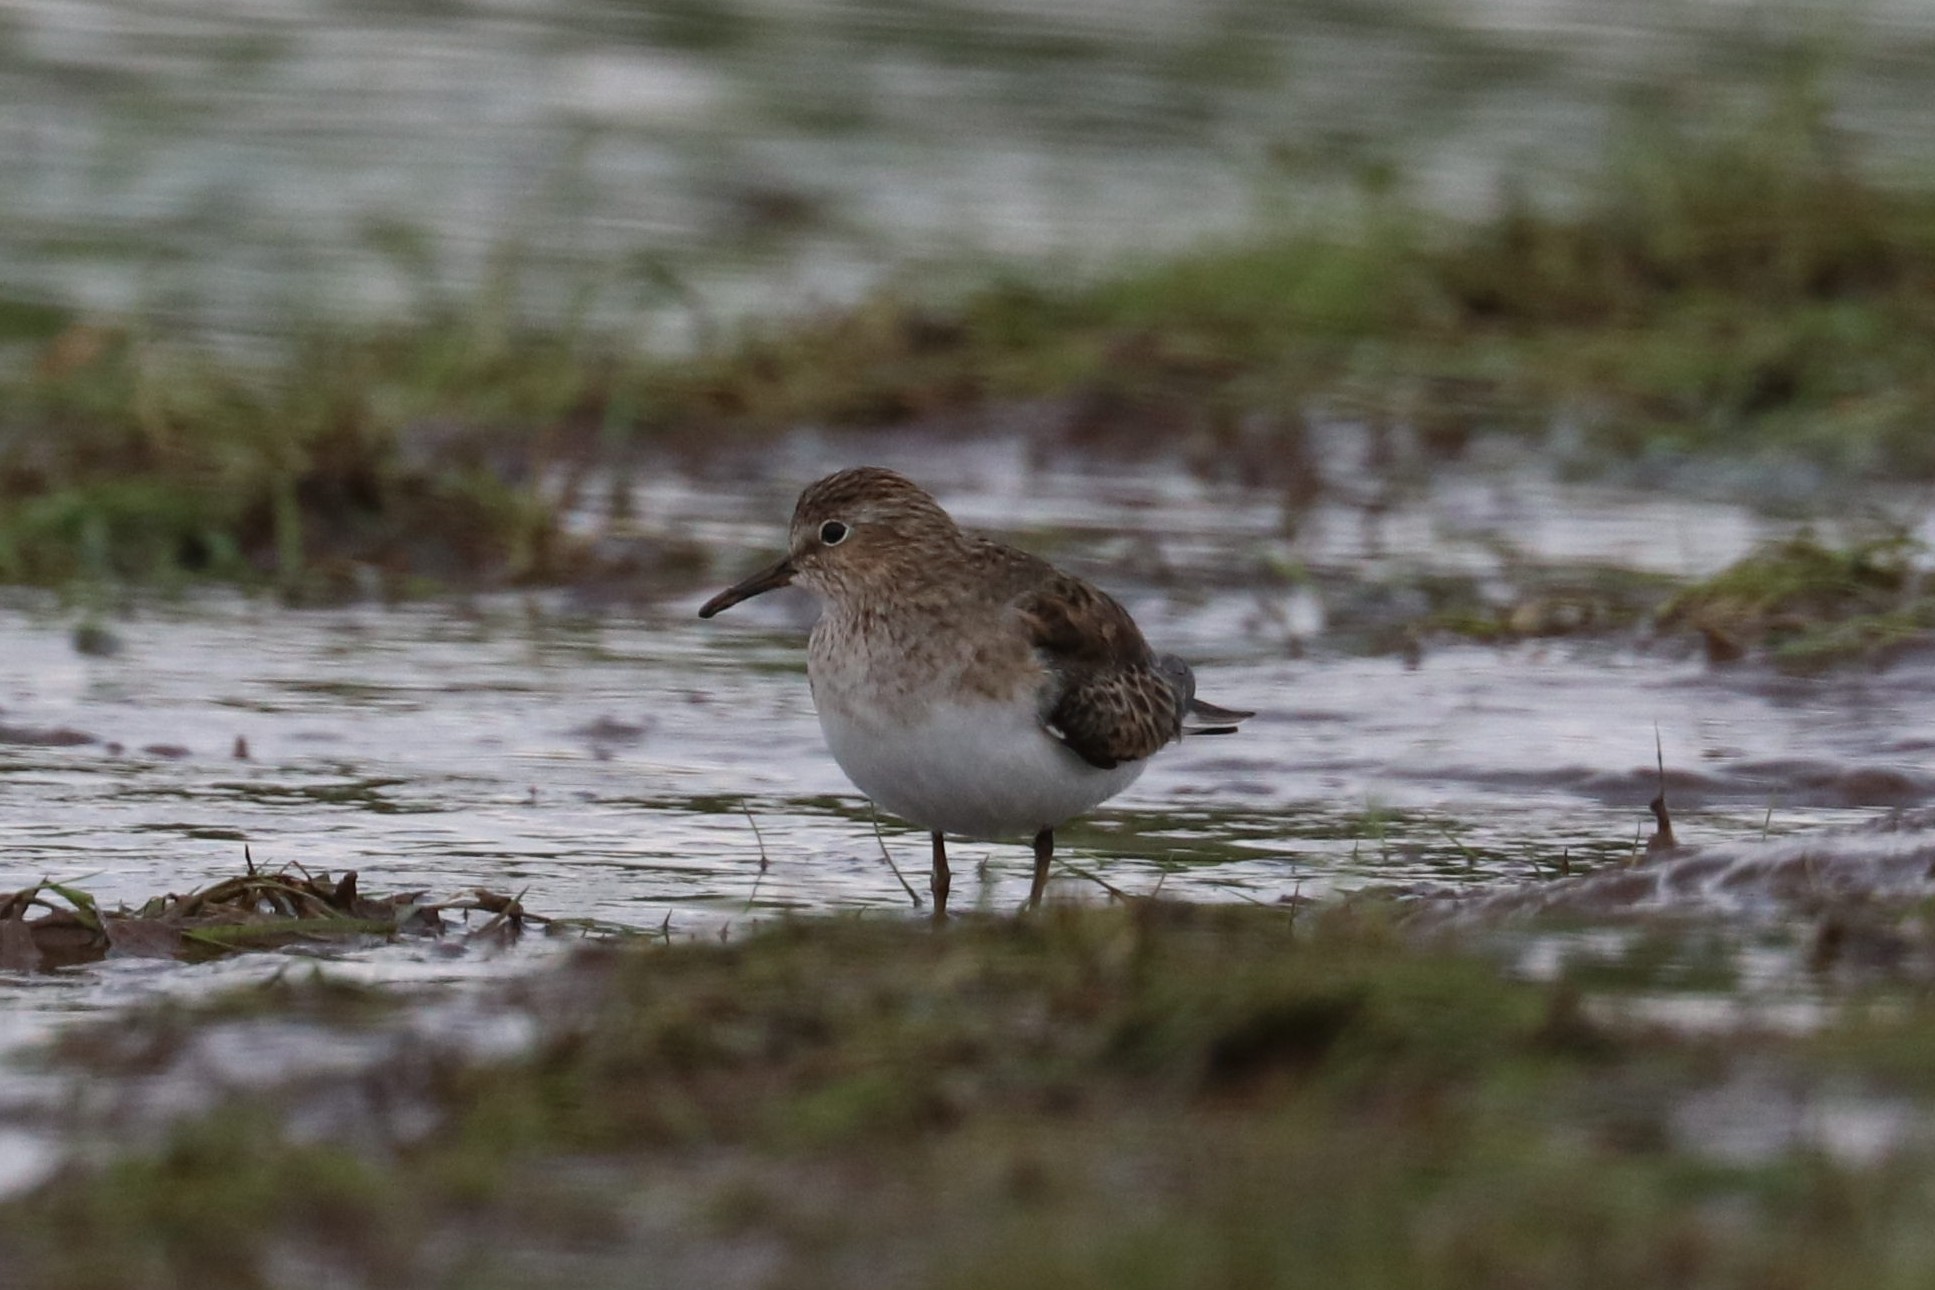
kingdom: Animalia
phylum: Chordata
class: Aves
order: Charadriiformes
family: Scolopacidae
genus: Calidris
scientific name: Calidris temminckii
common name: Temminck's stint
